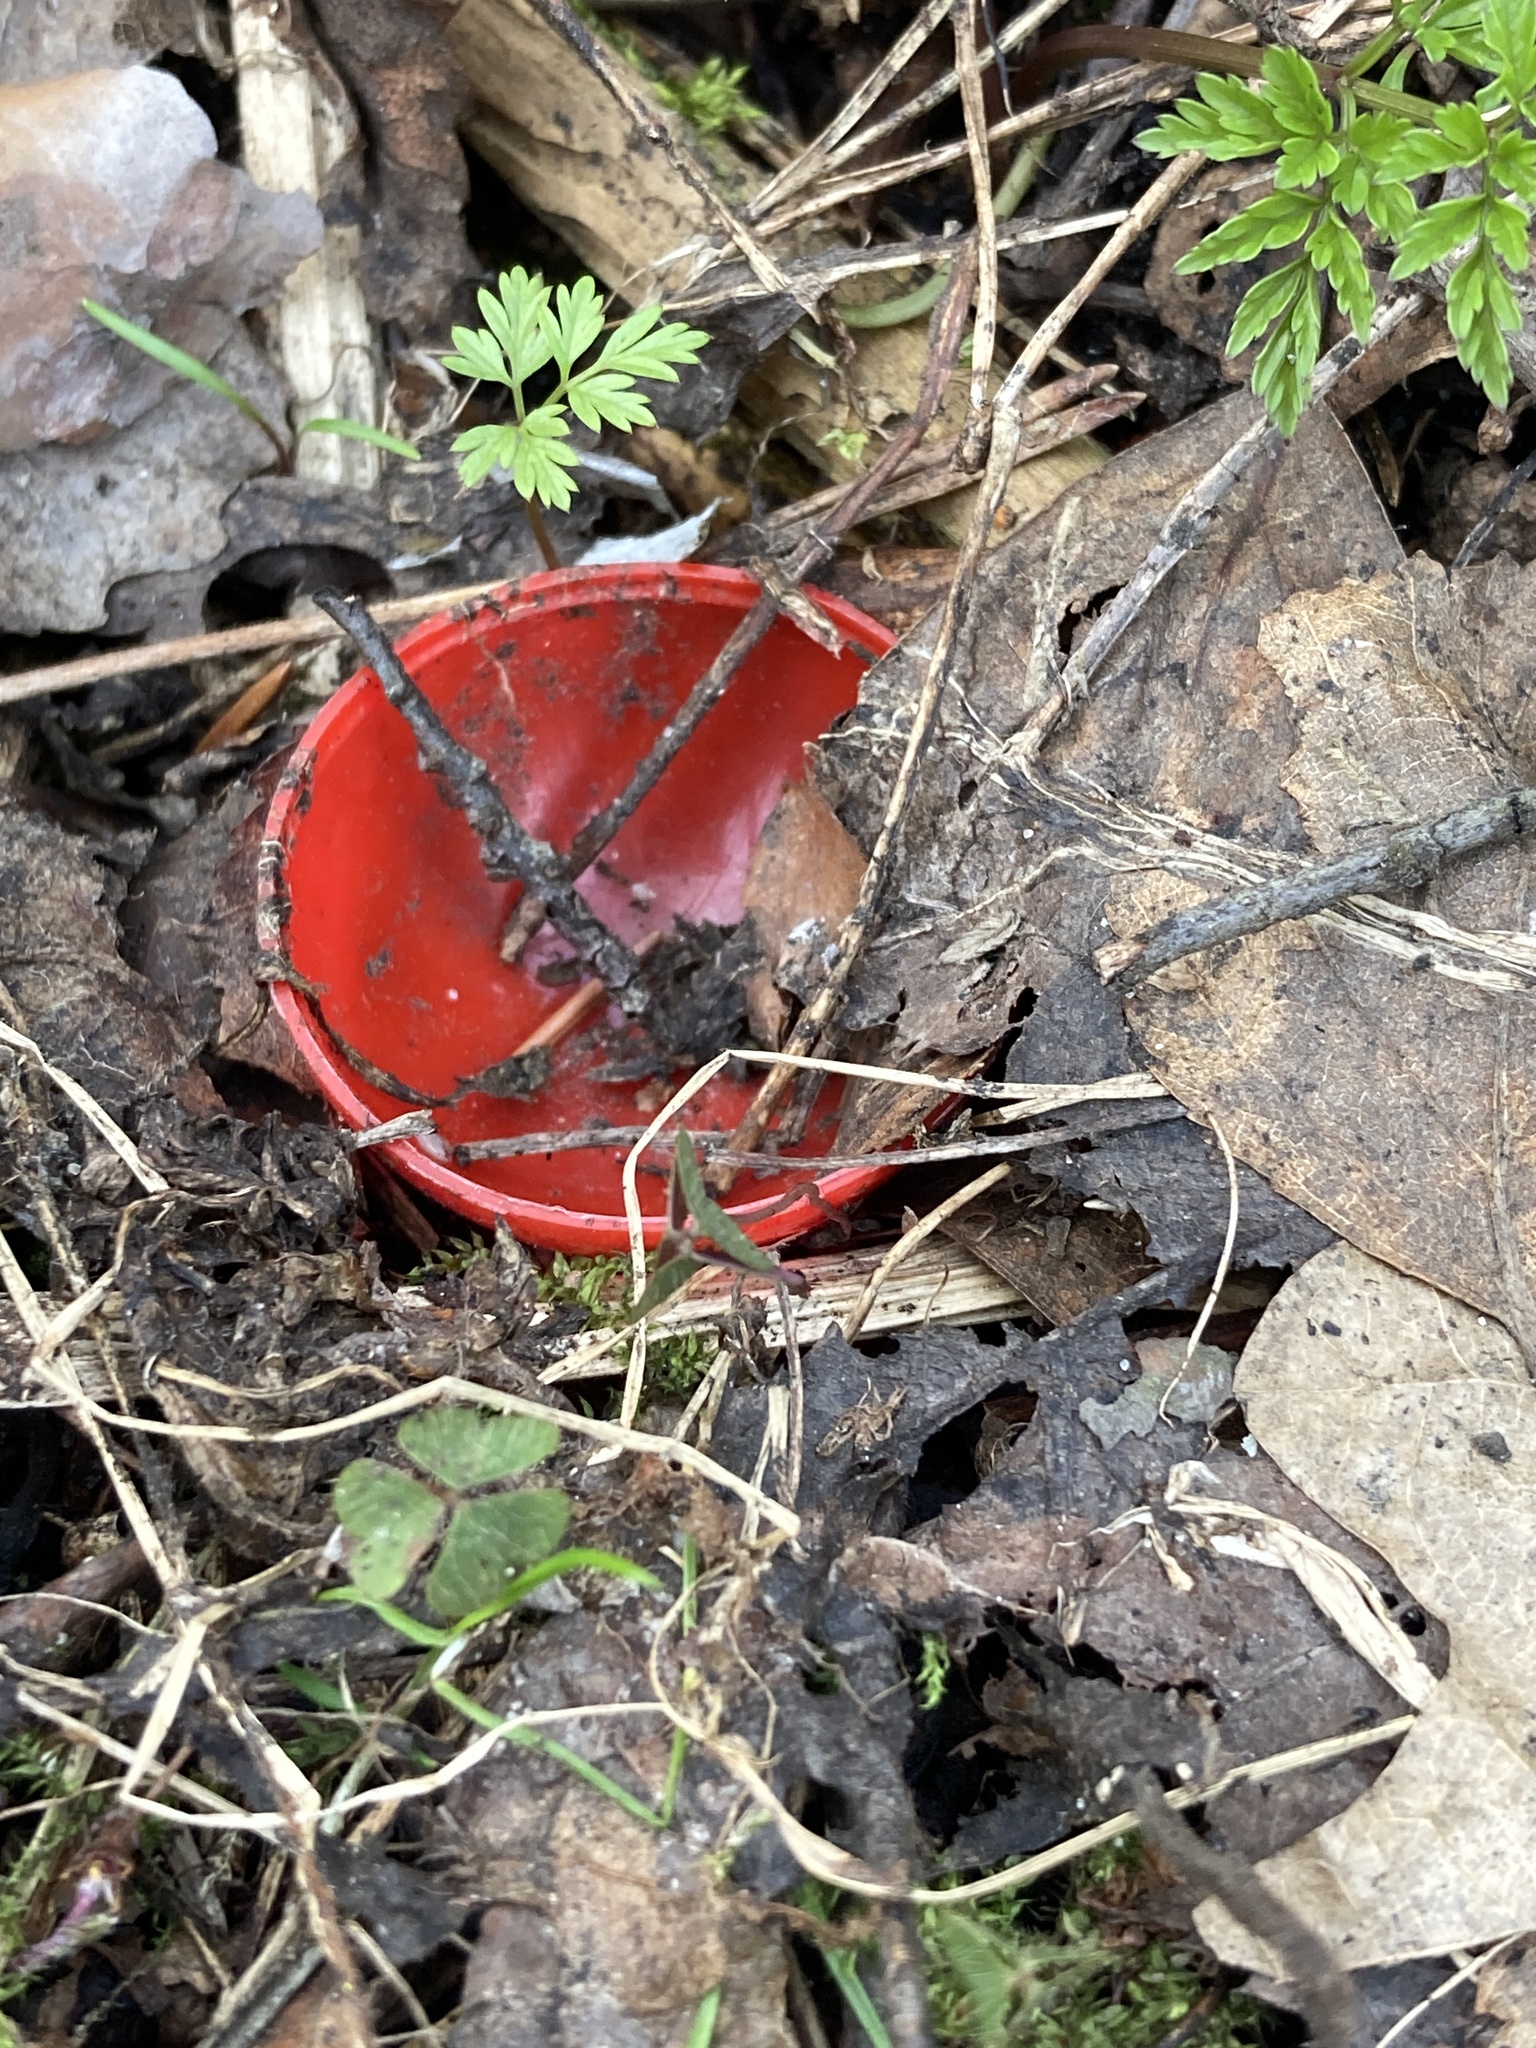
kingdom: Fungi
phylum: Ascomycota
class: Pezizomycetes
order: Pezizales
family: Sarcoscyphaceae
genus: Sarcoscypha
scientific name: Sarcoscypha austriaca
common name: Scarlet elfcup
